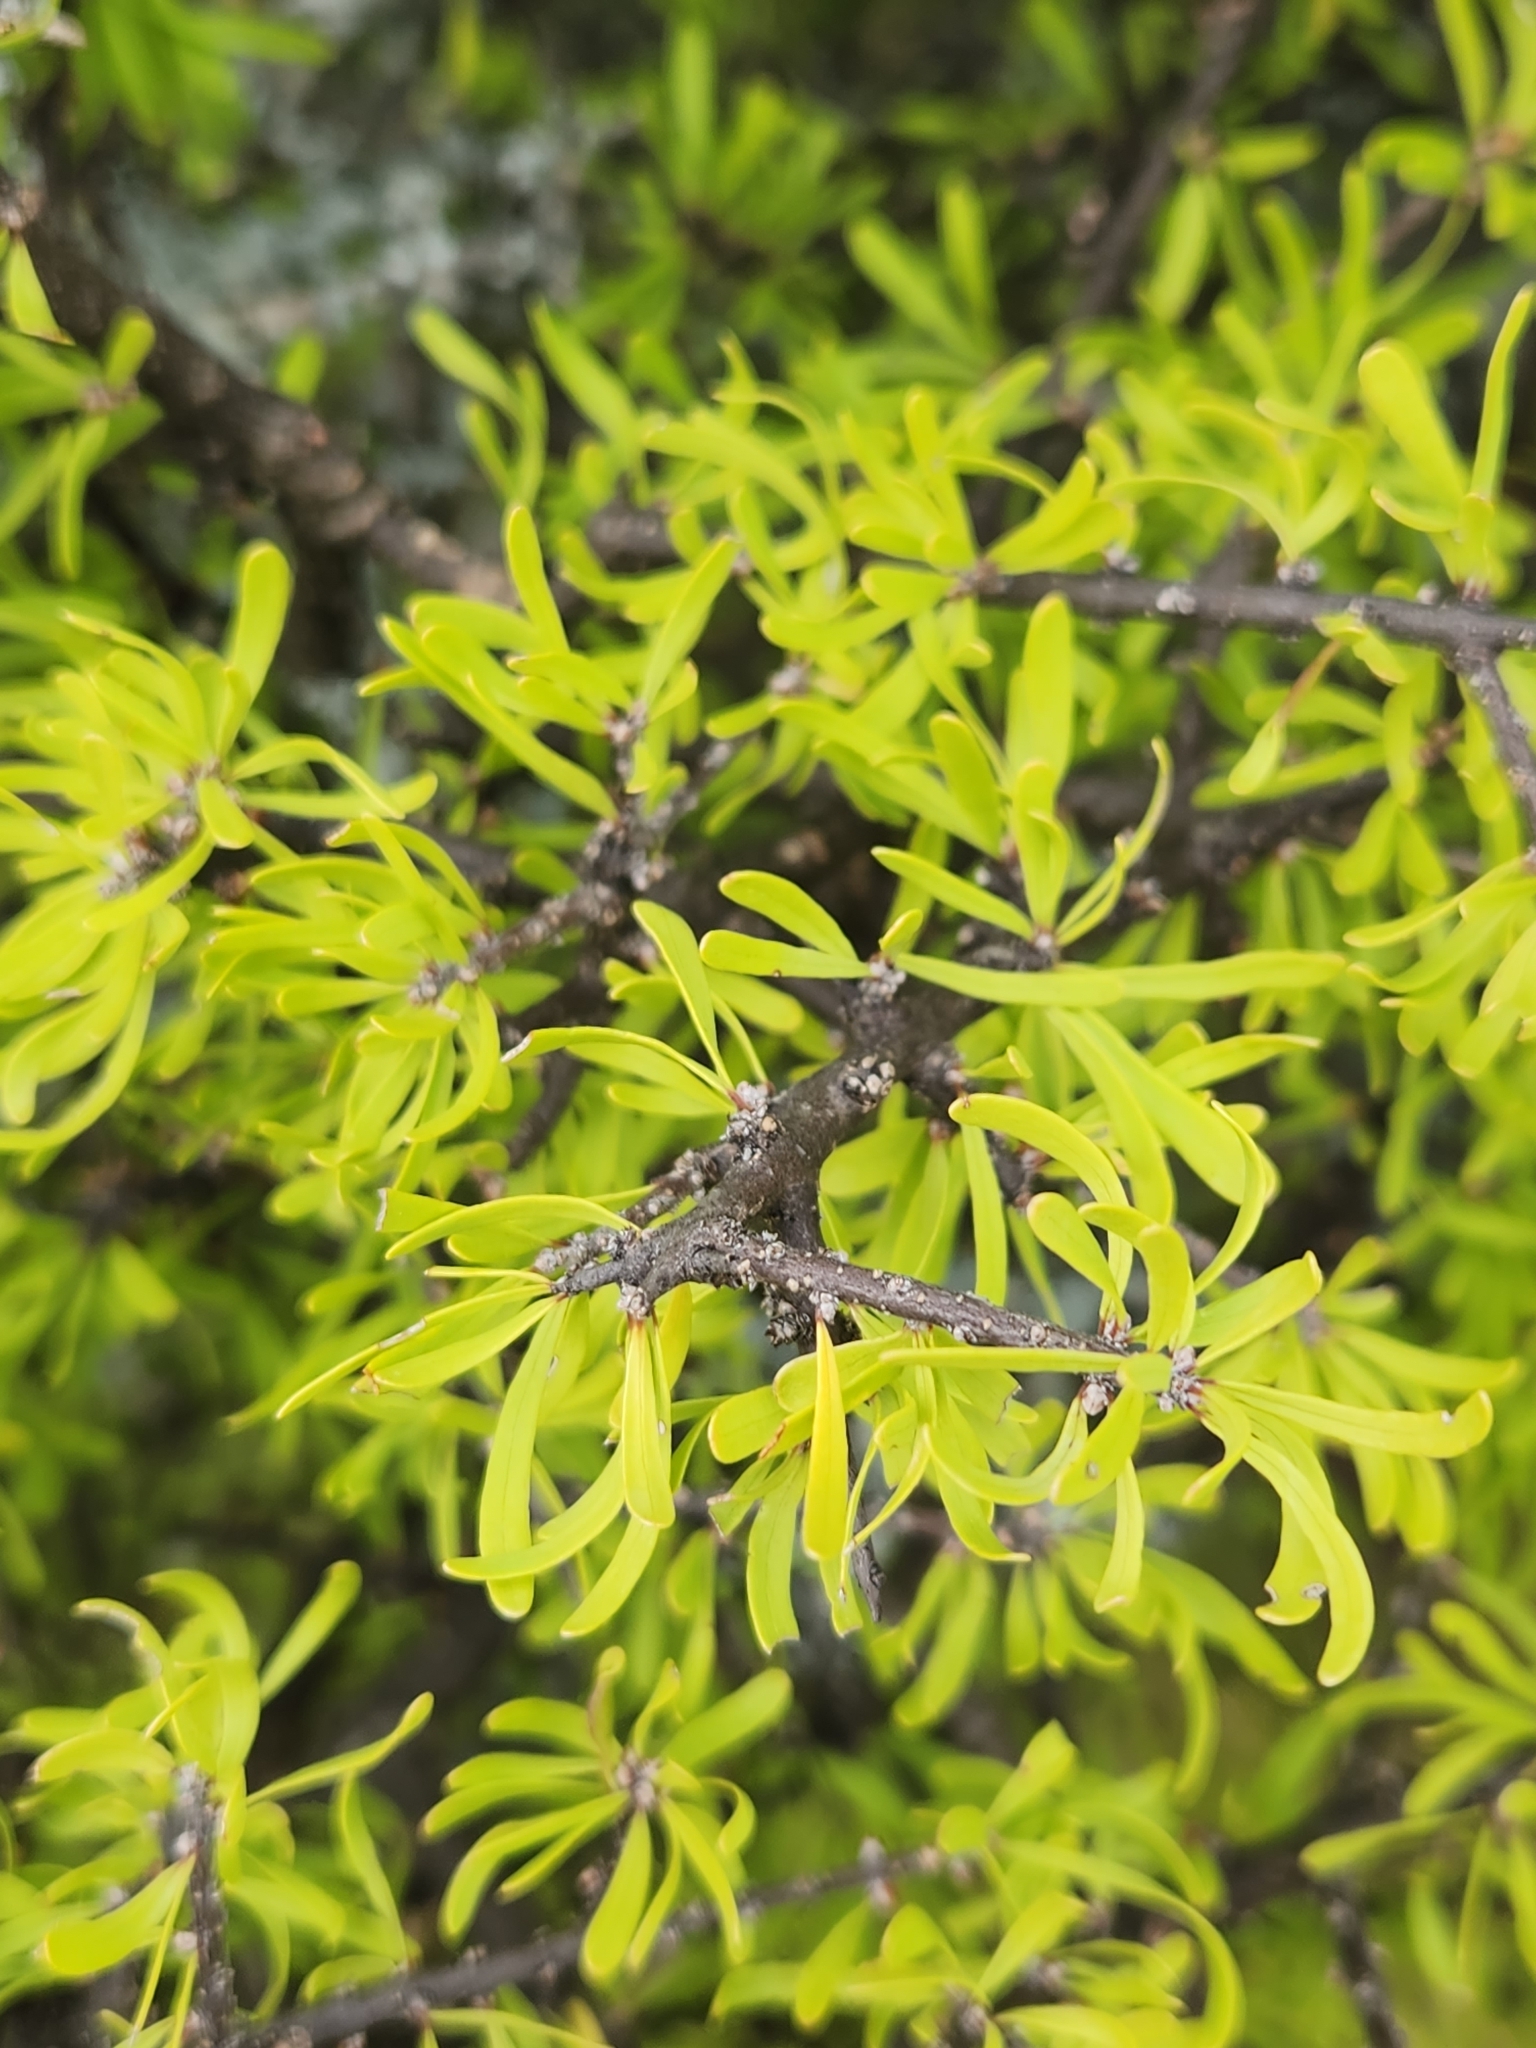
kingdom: Plantae
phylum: Tracheophyta
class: Magnoliopsida
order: Lamiales
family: Oleaceae
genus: Forestiera
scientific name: Forestiera angustifolia
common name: Elbowbush
